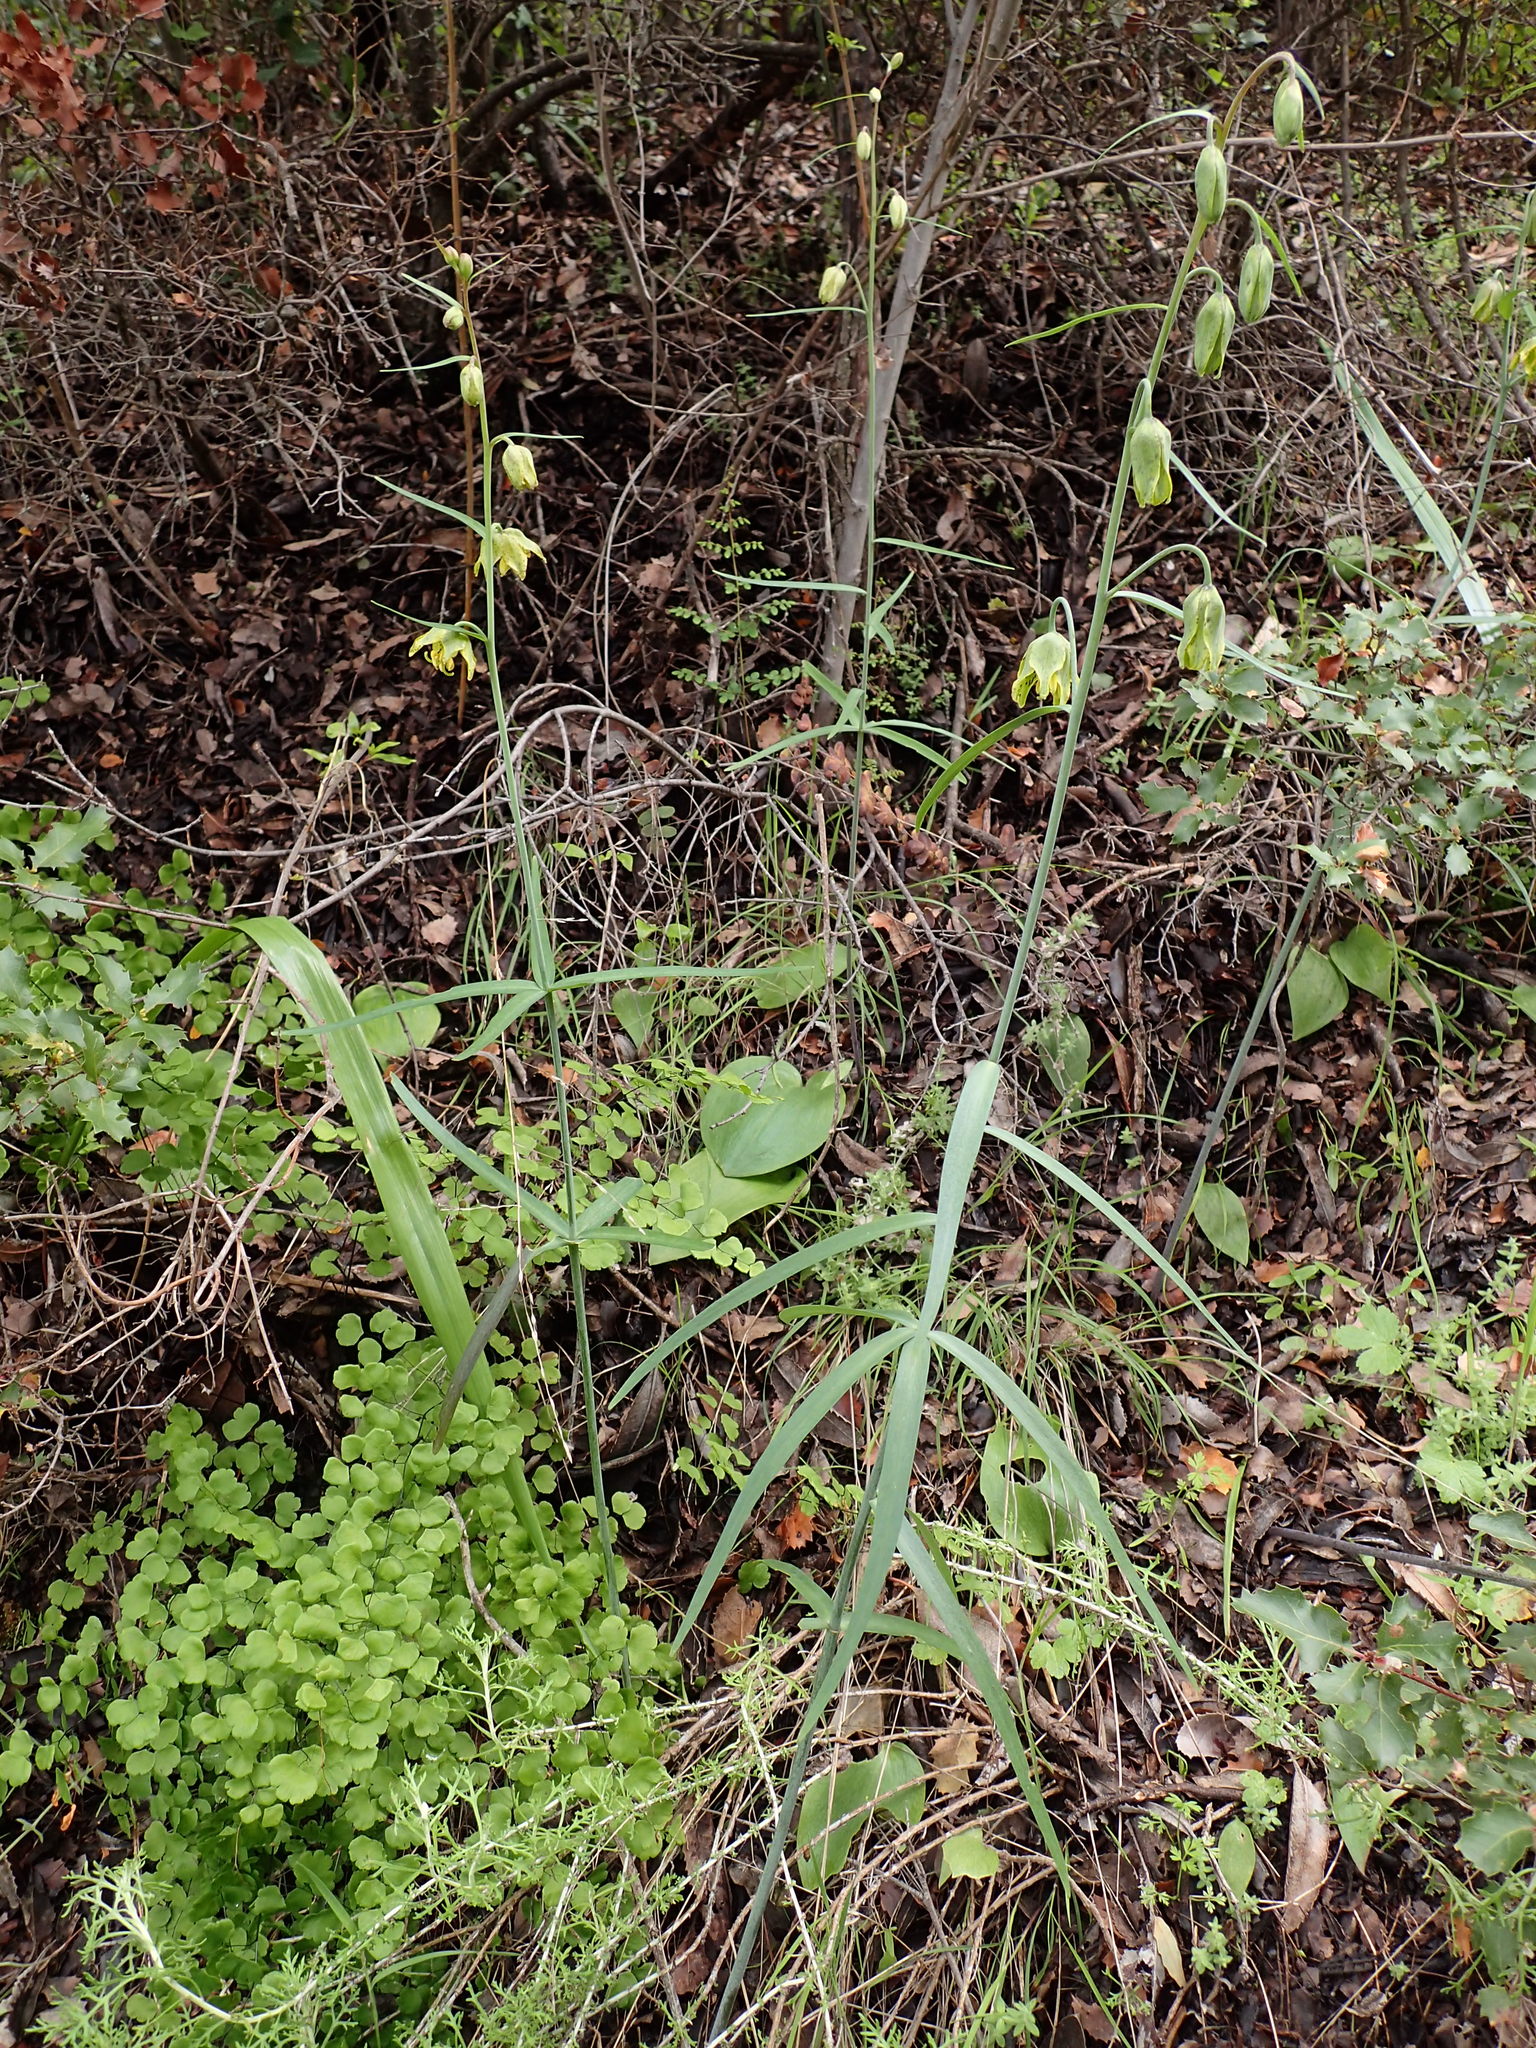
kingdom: Plantae
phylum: Tracheophyta
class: Liliopsida
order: Liliales
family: Liliaceae
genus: Fritillaria
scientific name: Fritillaria ojaiensis
